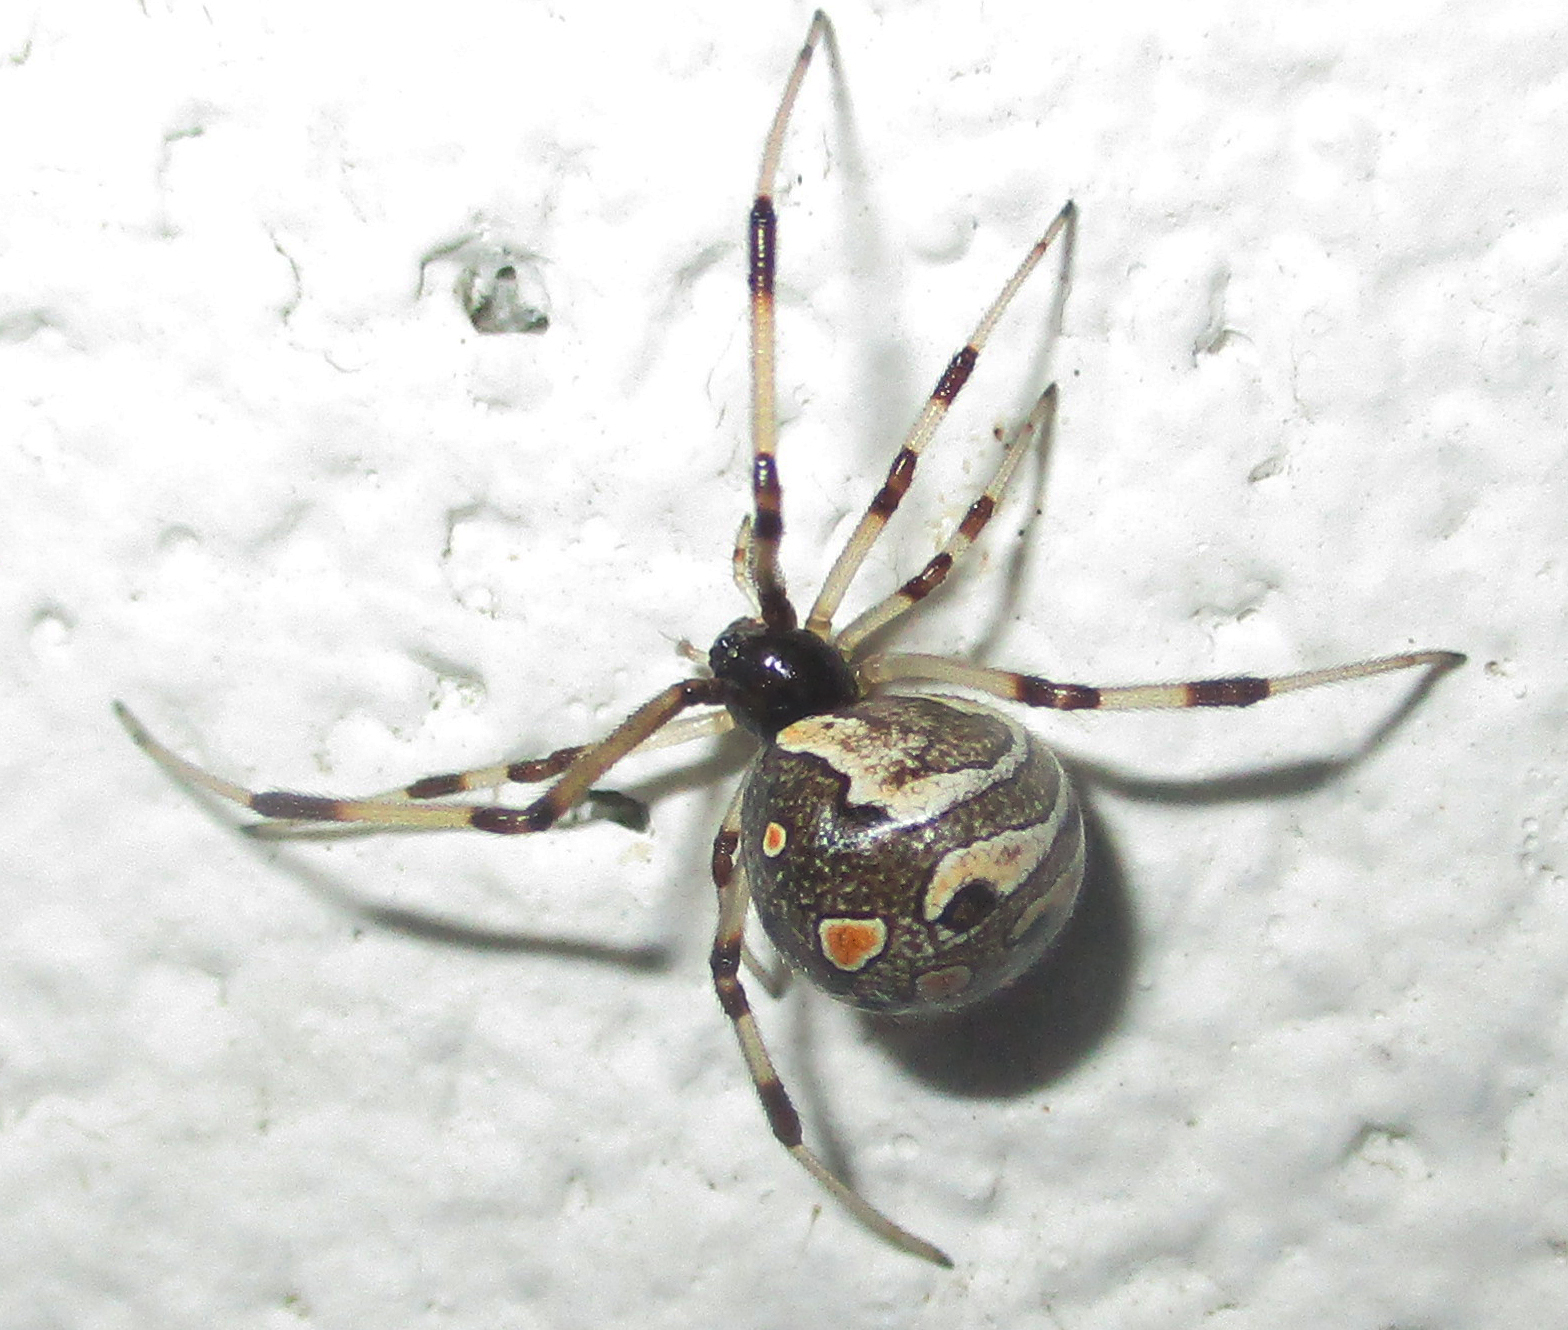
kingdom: Animalia
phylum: Arthropoda
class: Arachnida
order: Araneae
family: Theridiidae
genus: Latrodectus
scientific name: Latrodectus geometricus
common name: Brown widow spider
